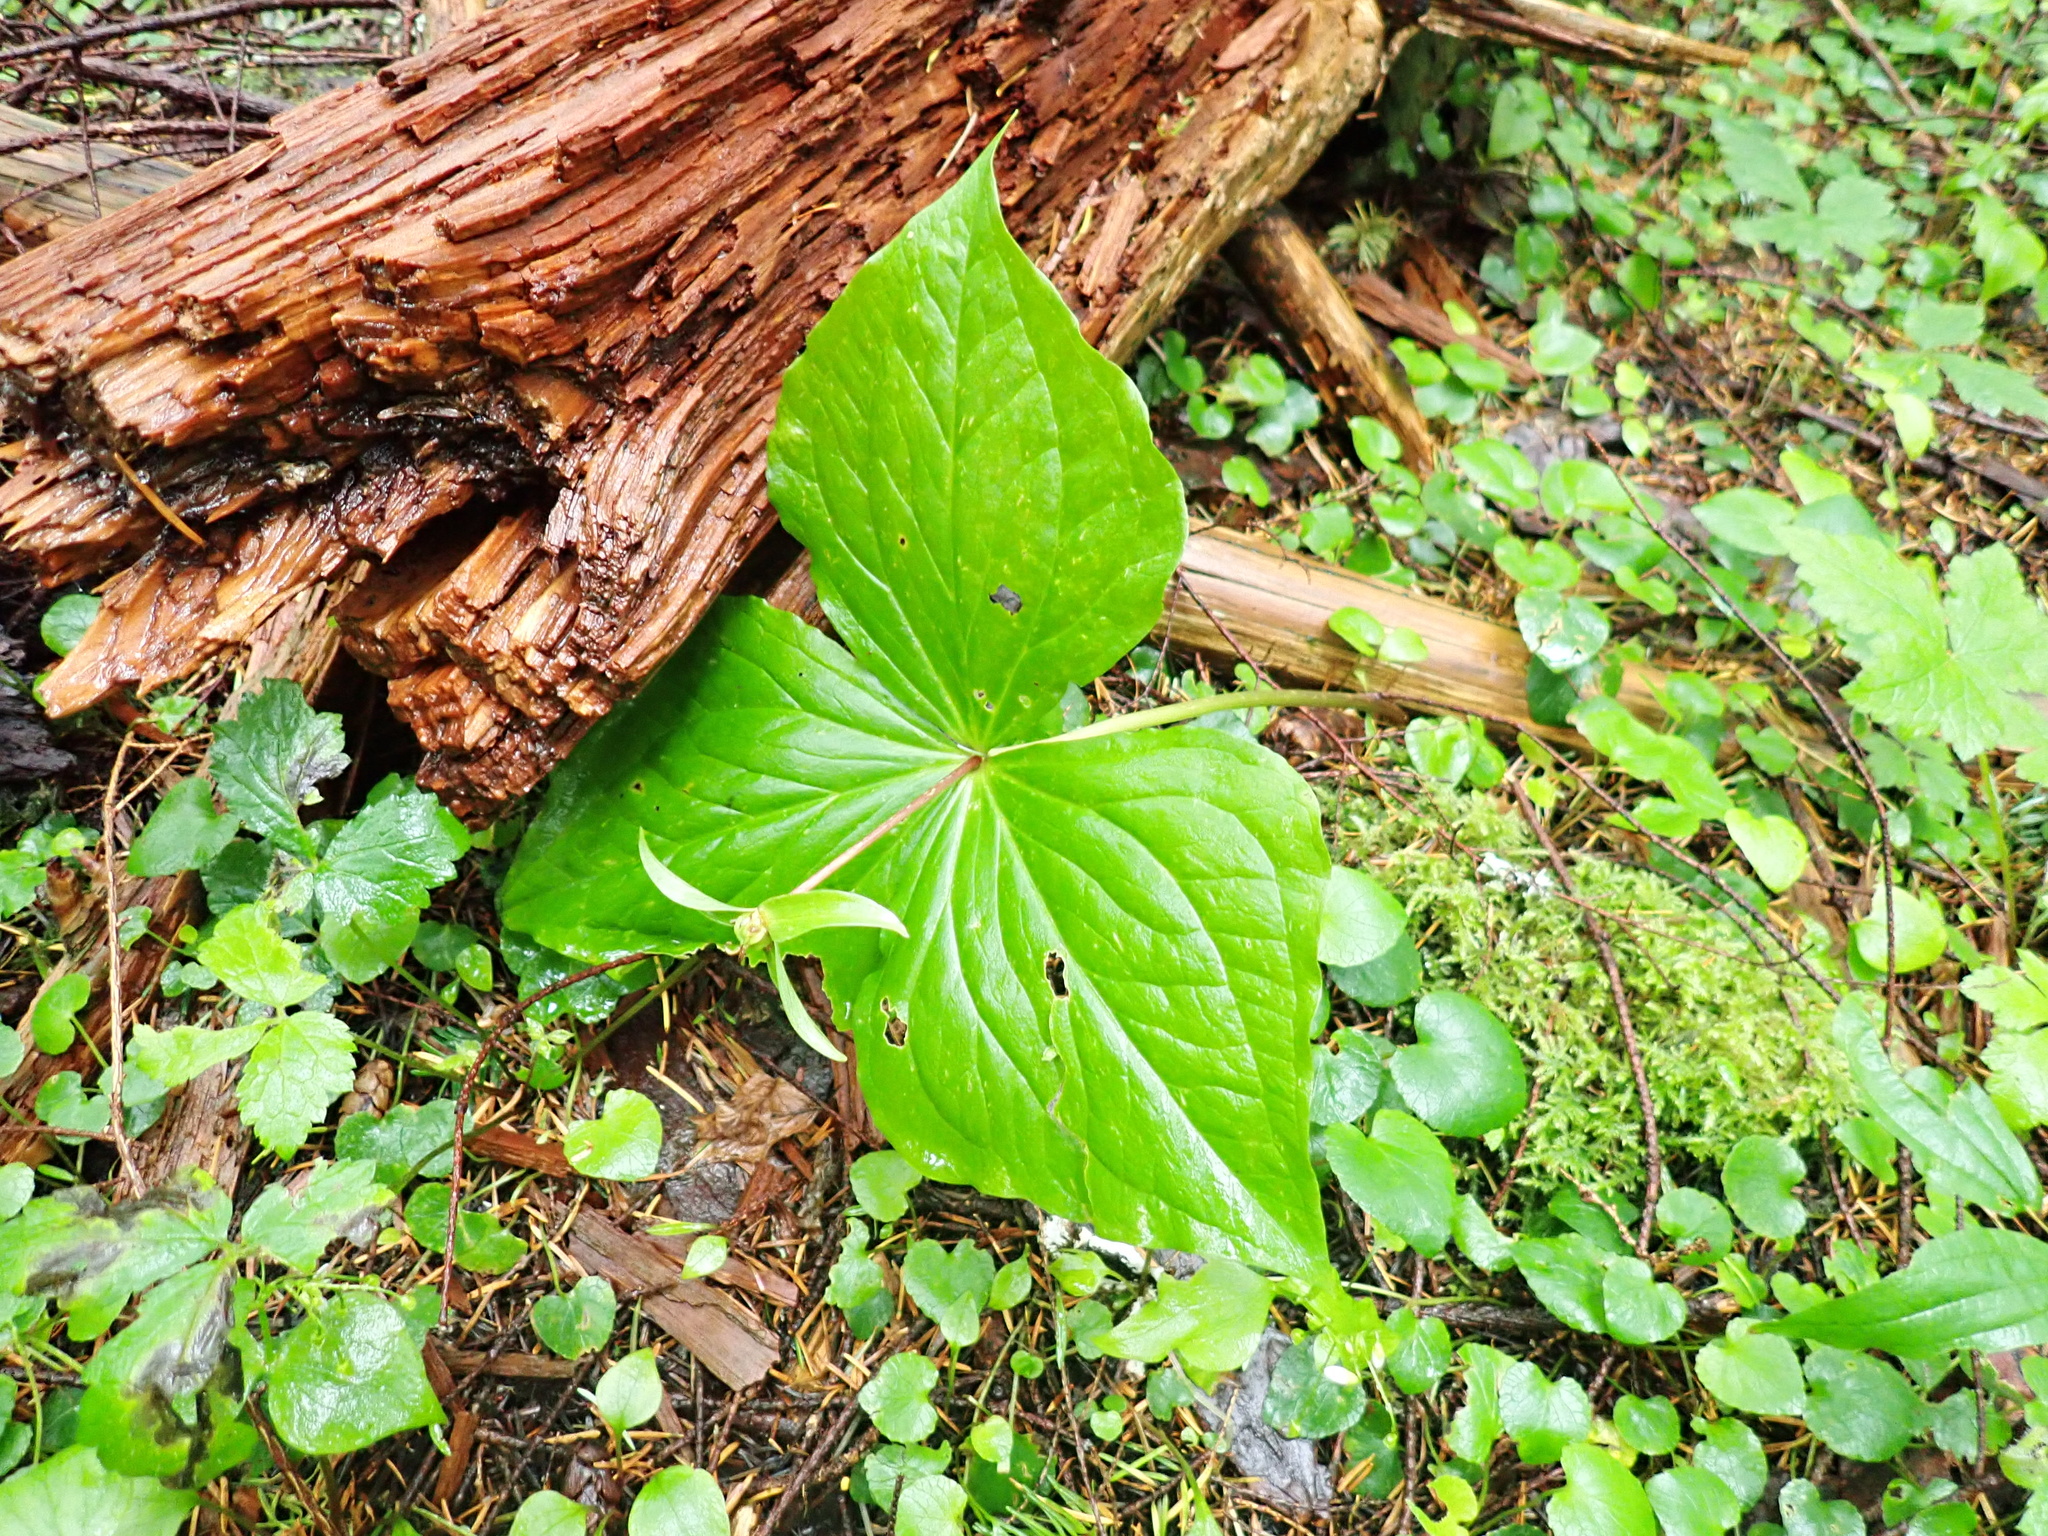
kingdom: Plantae
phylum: Tracheophyta
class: Liliopsida
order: Liliales
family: Melanthiaceae
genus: Trillium
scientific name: Trillium ovatum
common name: Pacific trillium
